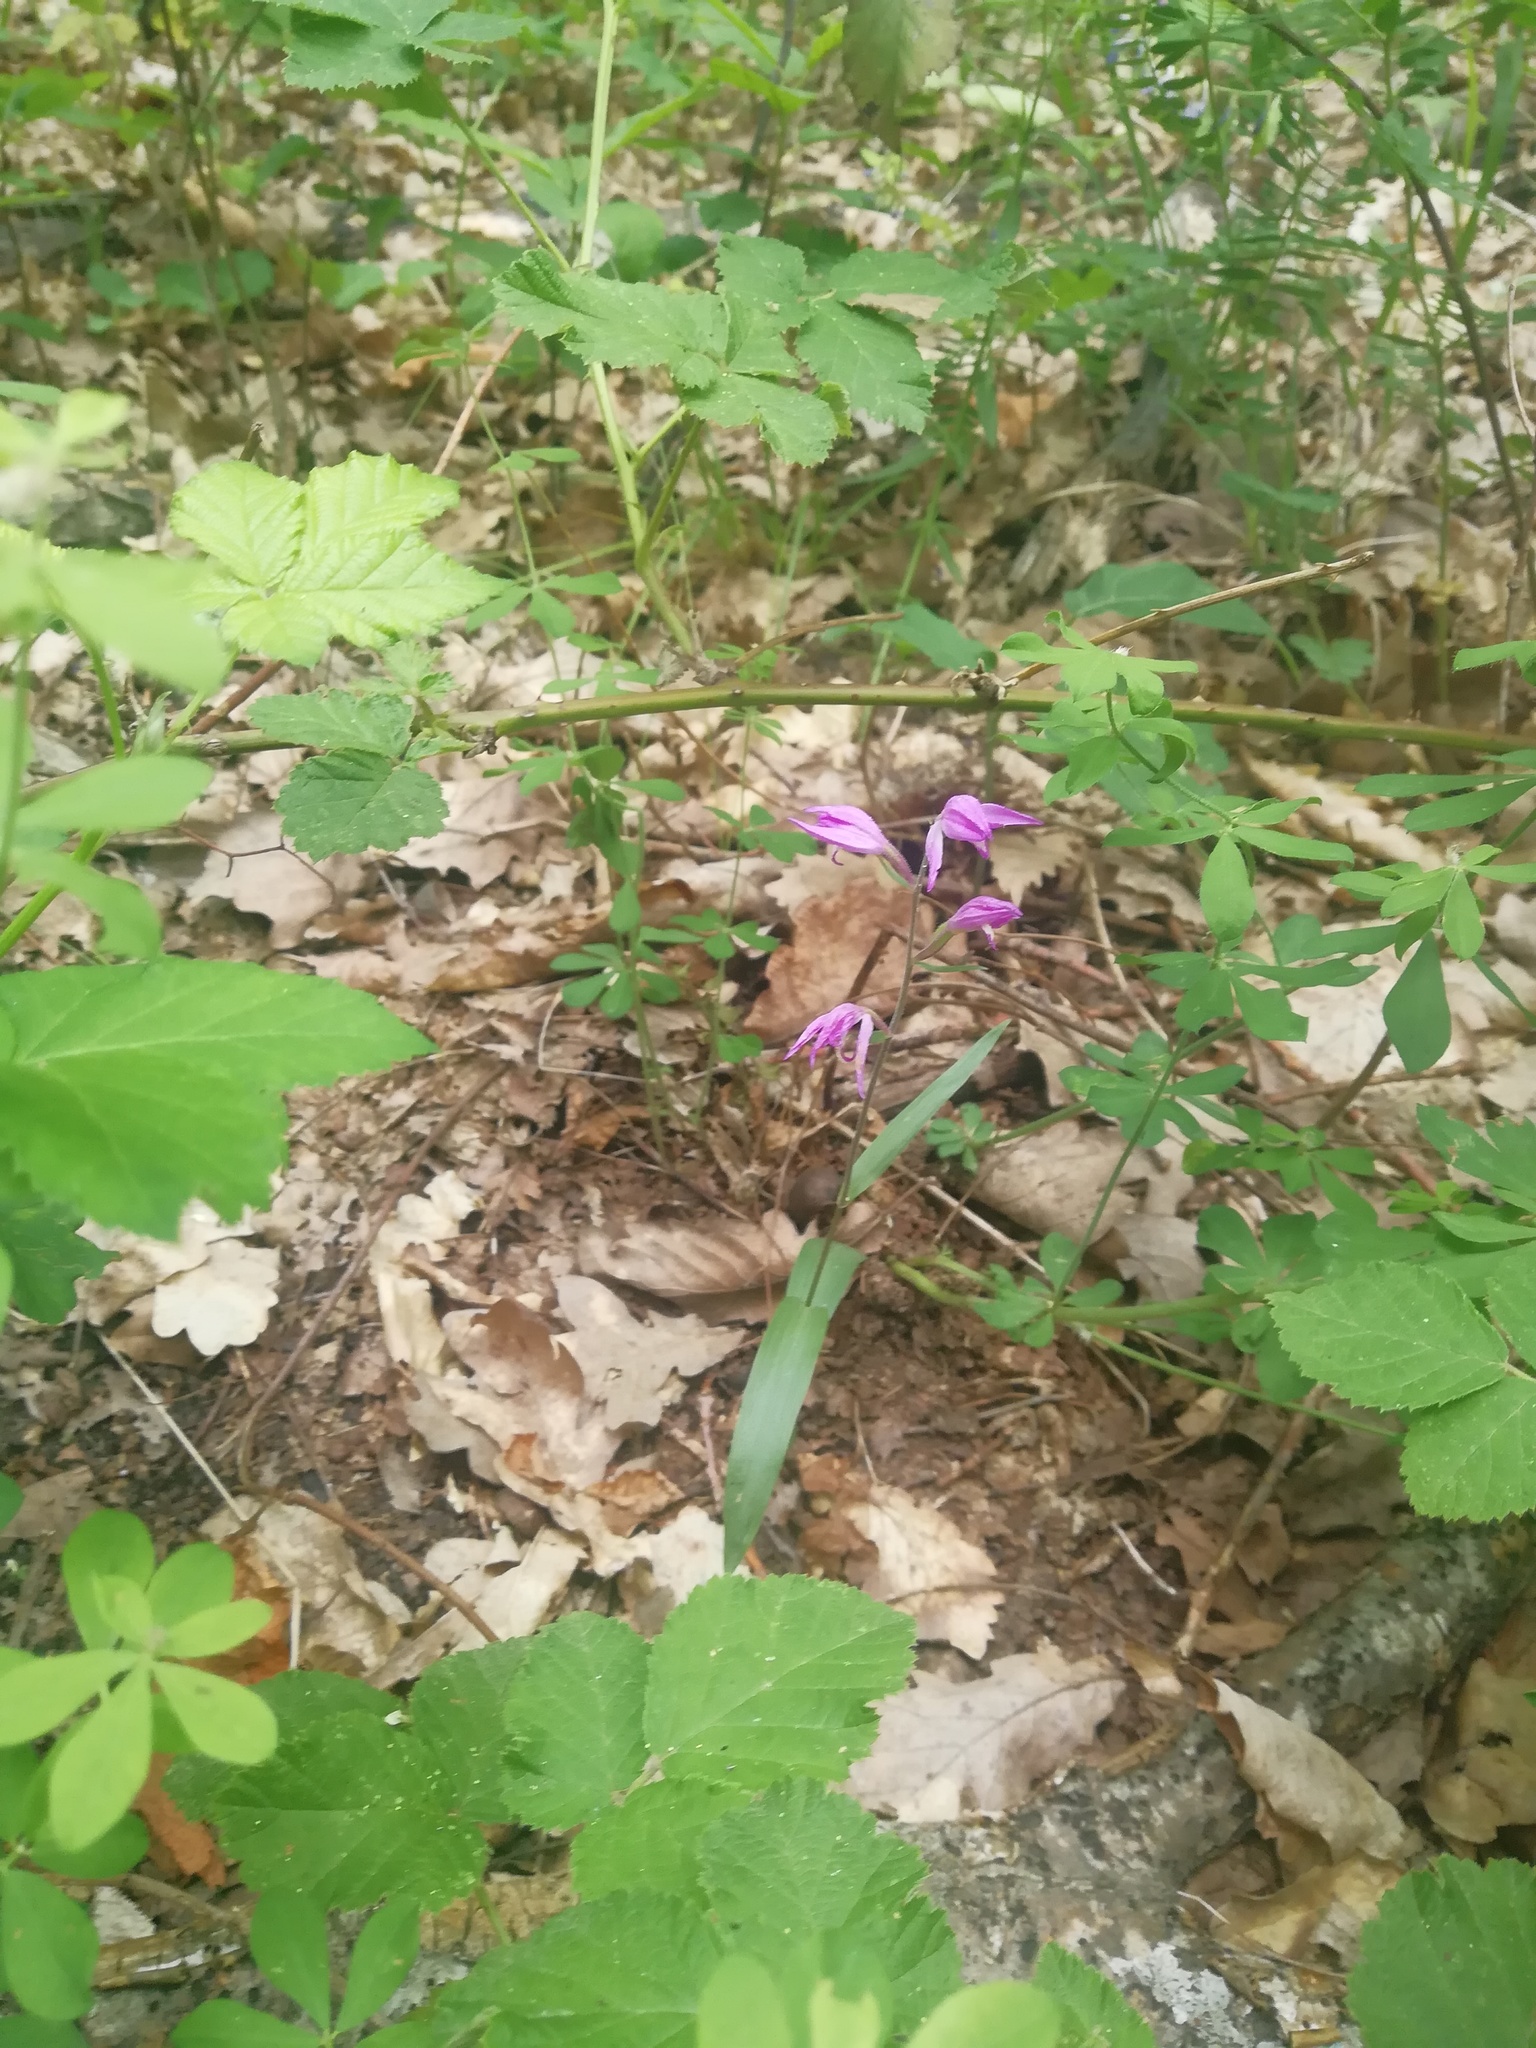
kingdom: Plantae
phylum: Tracheophyta
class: Liliopsida
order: Asparagales
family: Orchidaceae
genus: Cephalanthera
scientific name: Cephalanthera rubra
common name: Red helleborine
